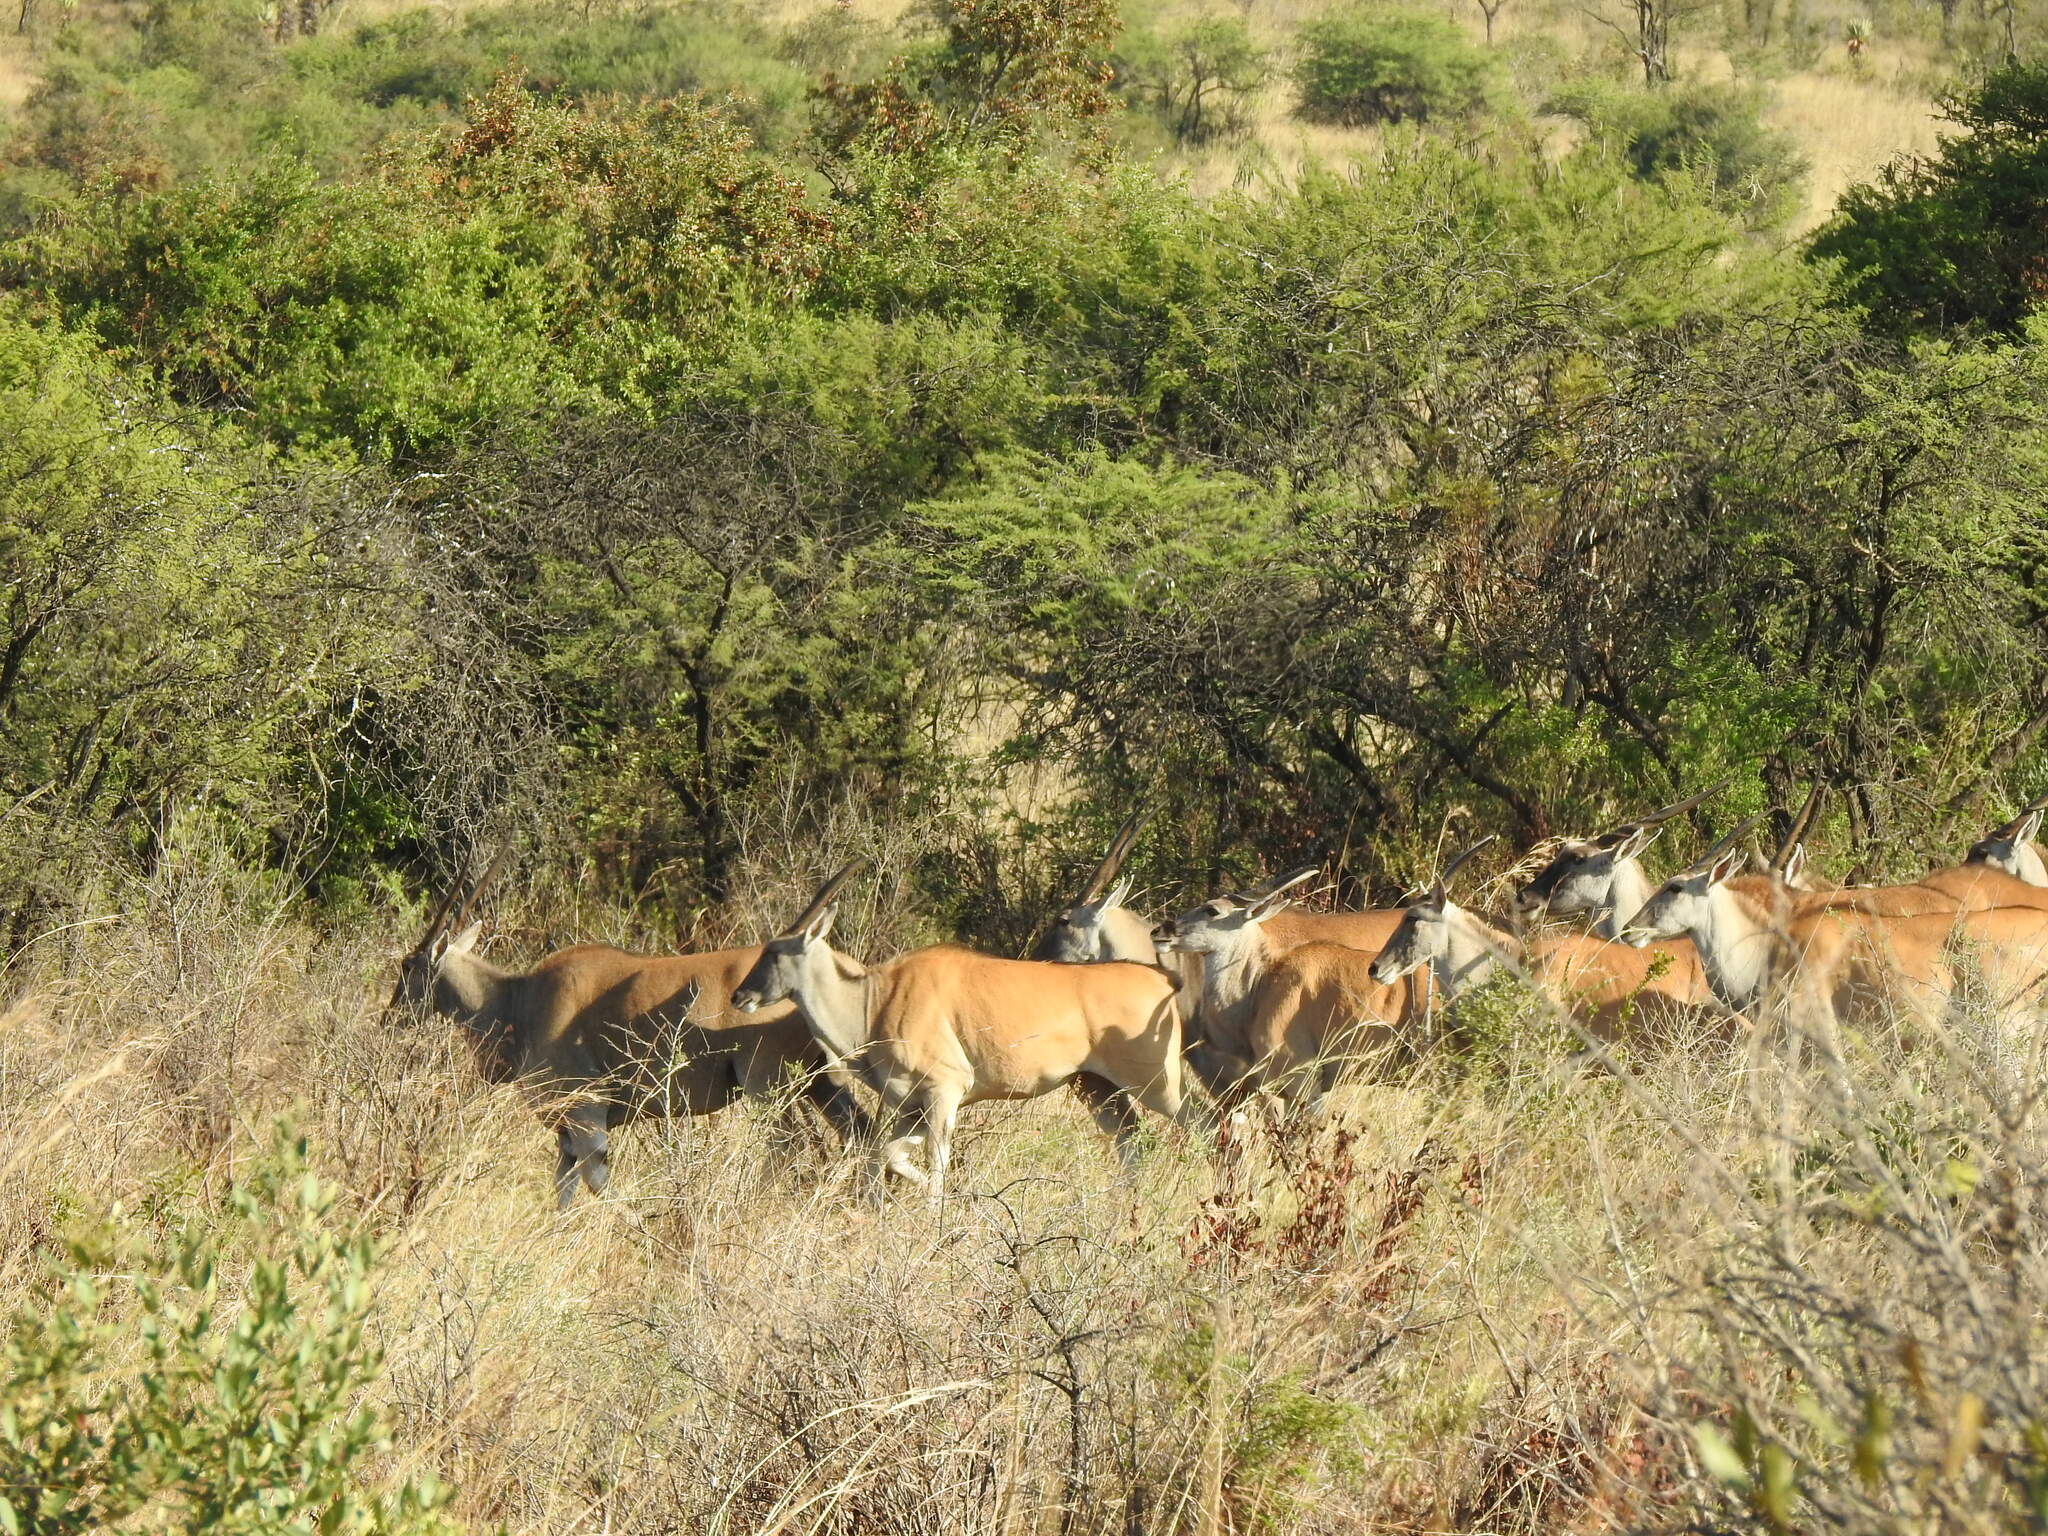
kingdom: Animalia
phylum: Chordata
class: Mammalia
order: Artiodactyla
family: Bovidae
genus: Taurotragus
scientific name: Taurotragus oryx
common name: Common eland
